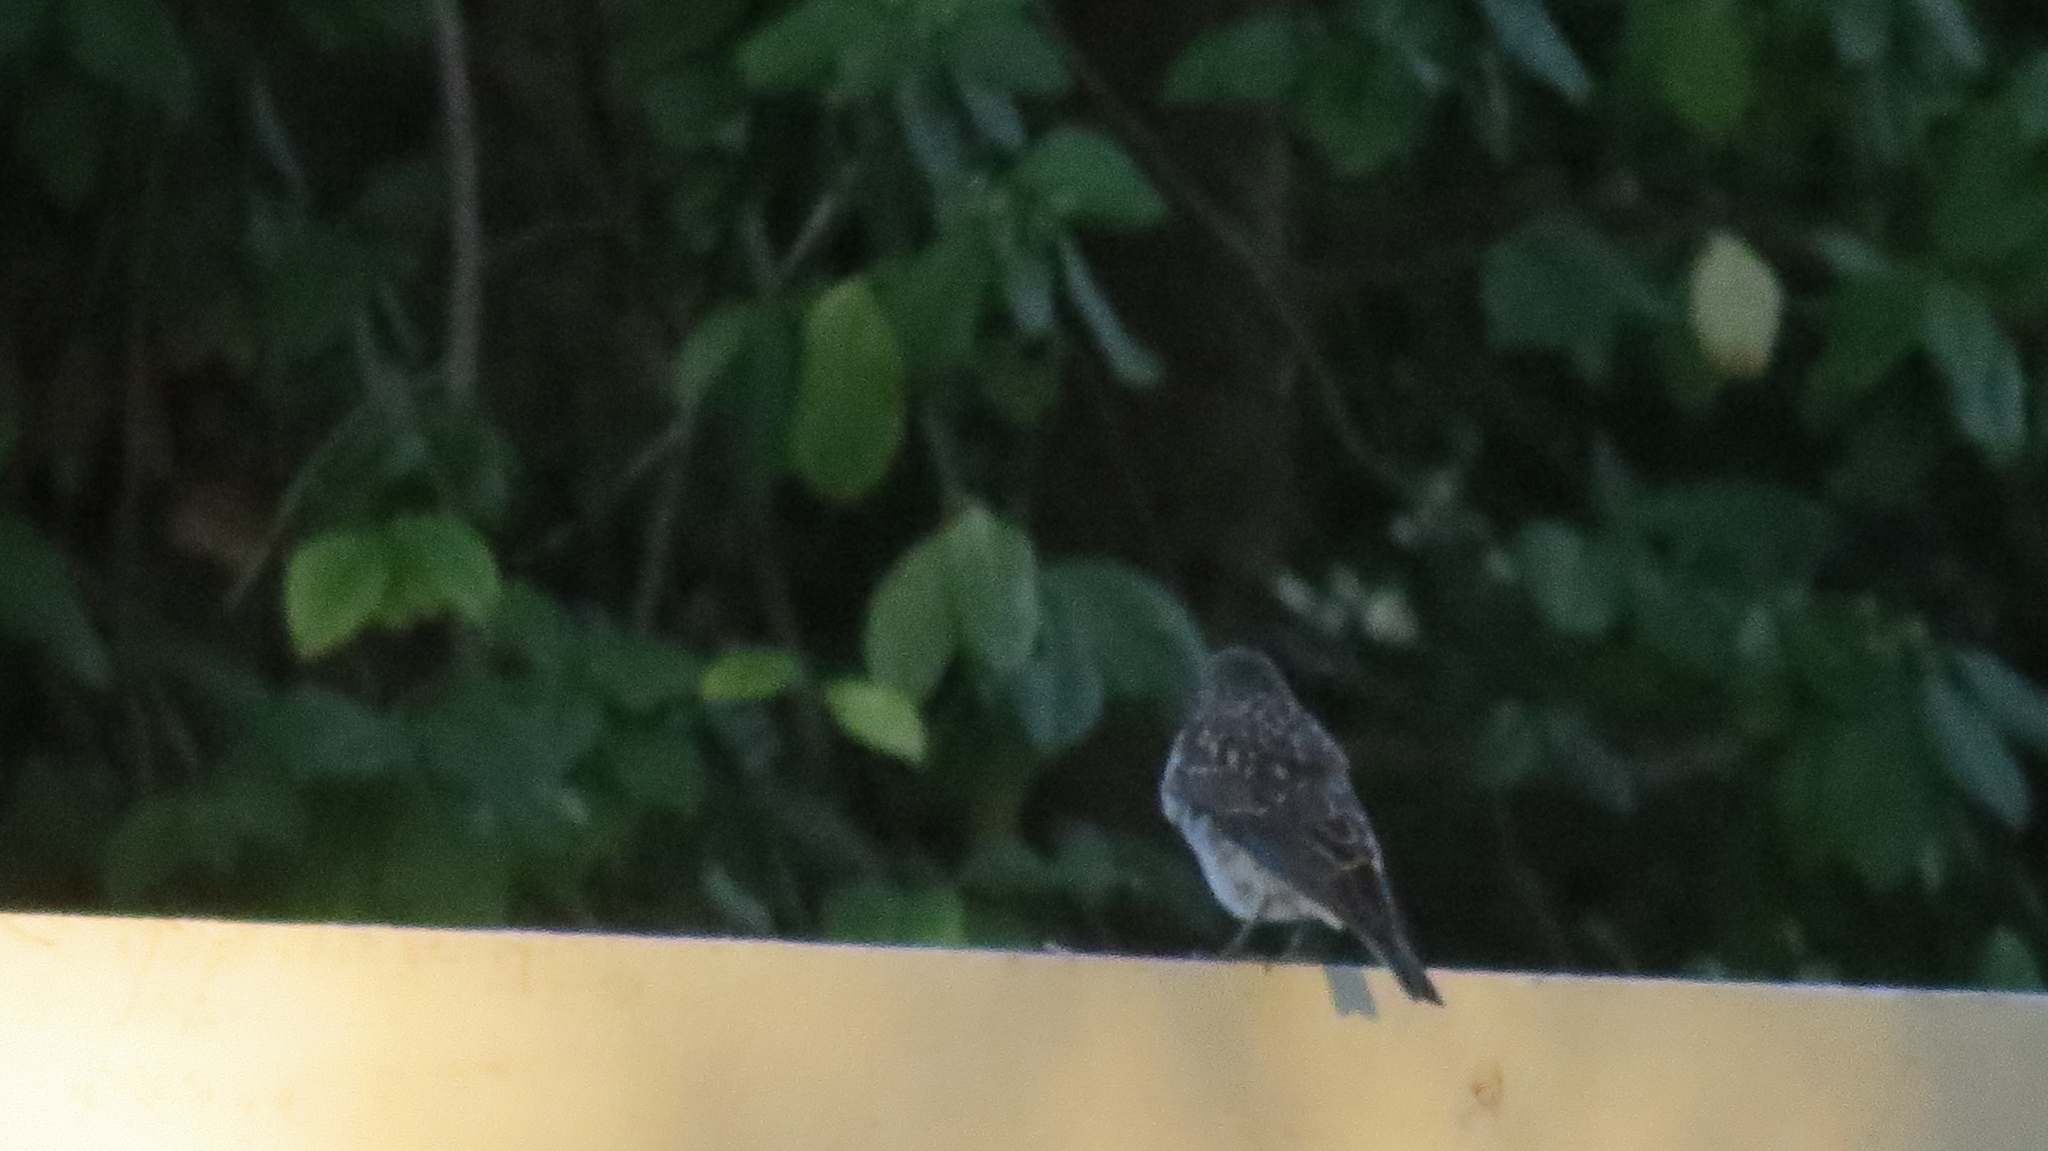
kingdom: Animalia
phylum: Chordata
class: Aves
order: Passeriformes
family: Turdidae
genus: Sialia
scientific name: Sialia sialis
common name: Eastern bluebird
